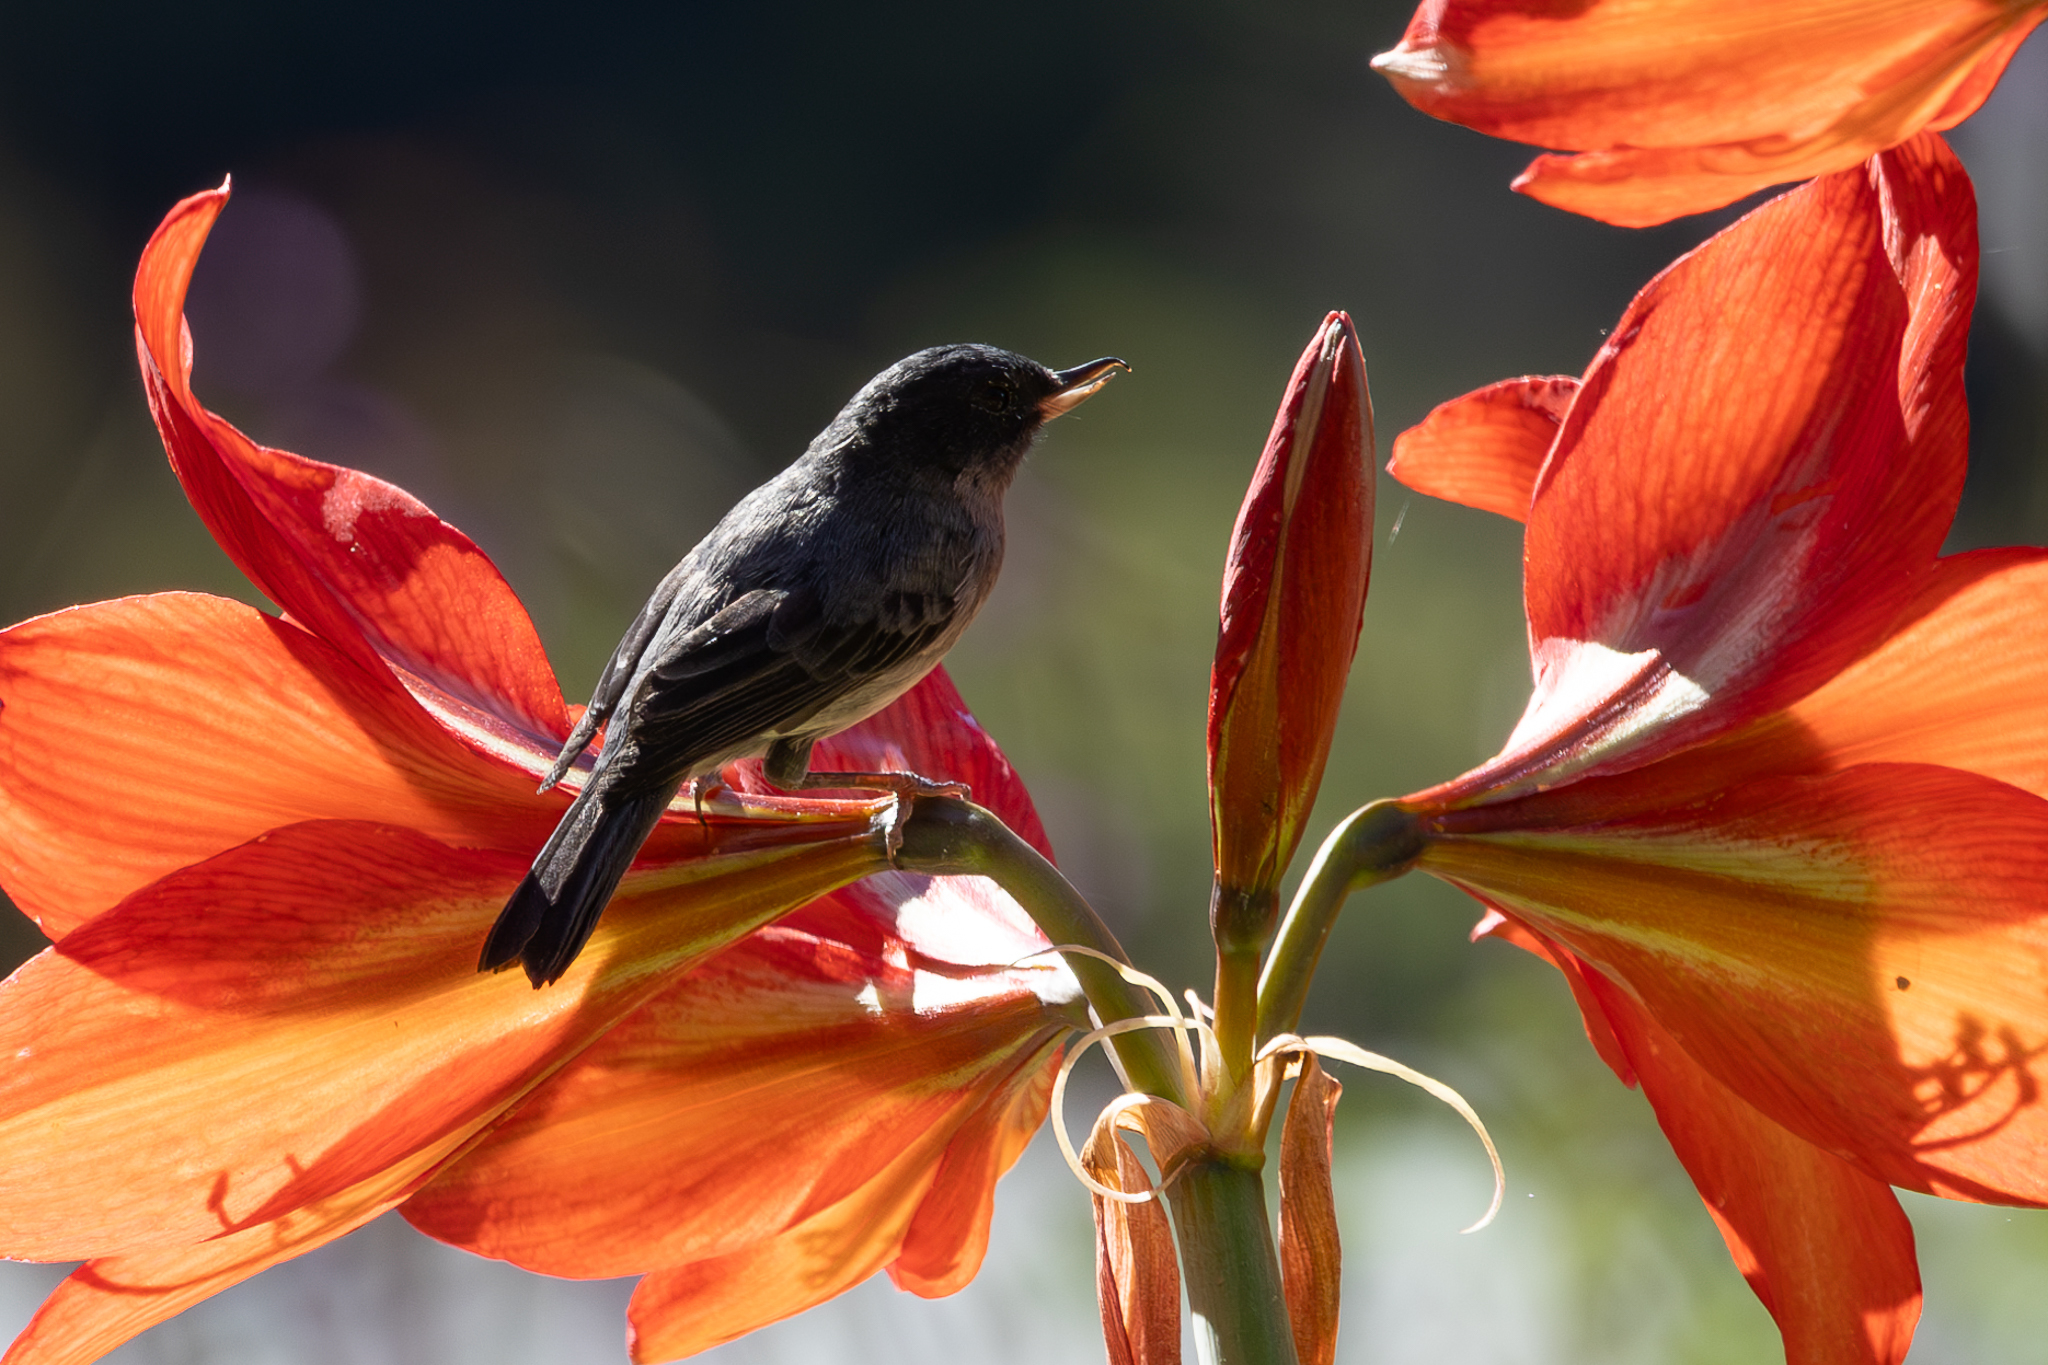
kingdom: Animalia
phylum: Chordata
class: Aves
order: Passeriformes
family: Thraupidae
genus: Diglossa
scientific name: Diglossa plumbea
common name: Slaty flowerpiercer
